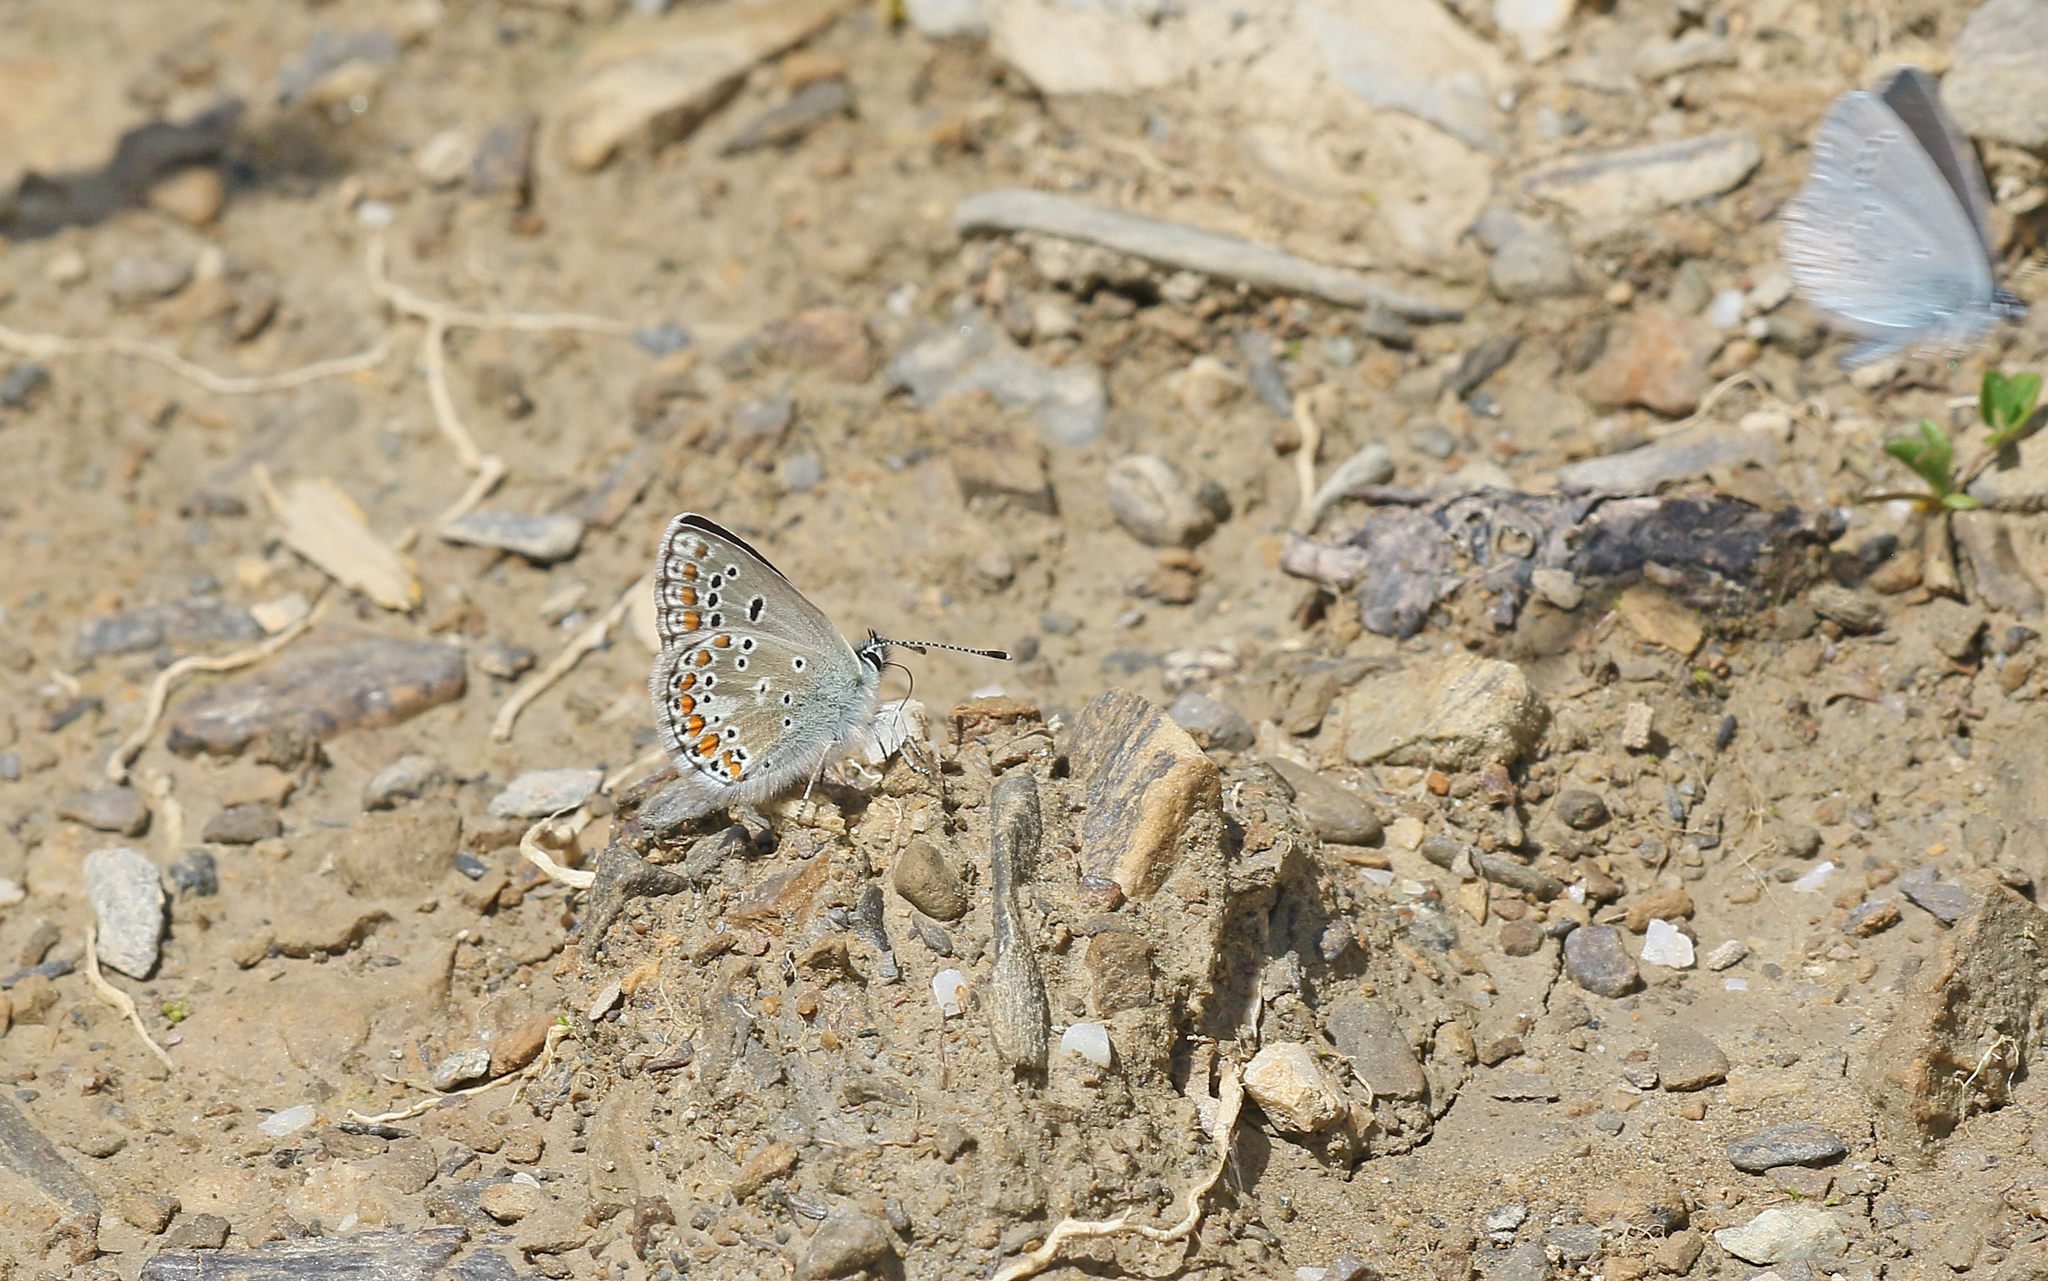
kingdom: Animalia
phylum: Arthropoda
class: Insecta
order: Lepidoptera
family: Lycaenidae
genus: Aricia
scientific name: Aricia artaxerxes
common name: Northern brown argus
